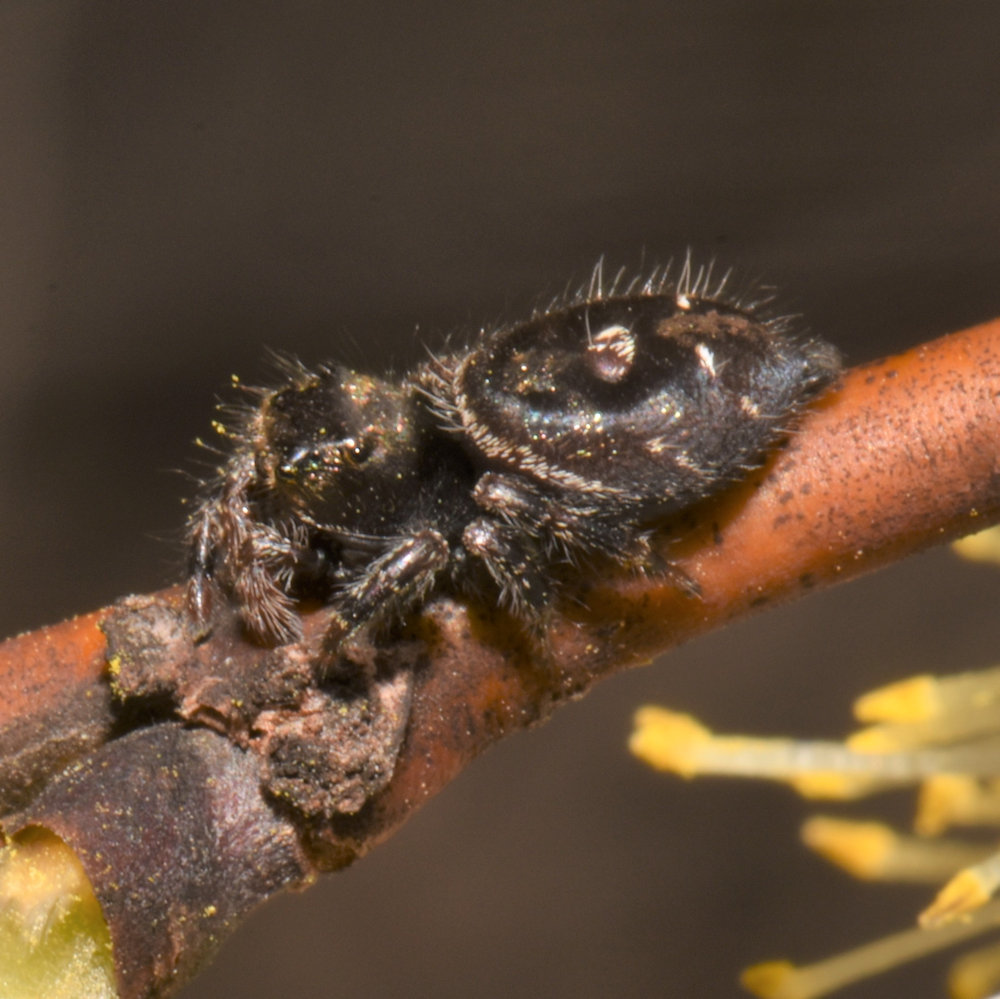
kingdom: Animalia
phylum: Arthropoda
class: Arachnida
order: Araneae
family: Salticidae
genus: Phidippus
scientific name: Phidippus audax
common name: Bold jumper
